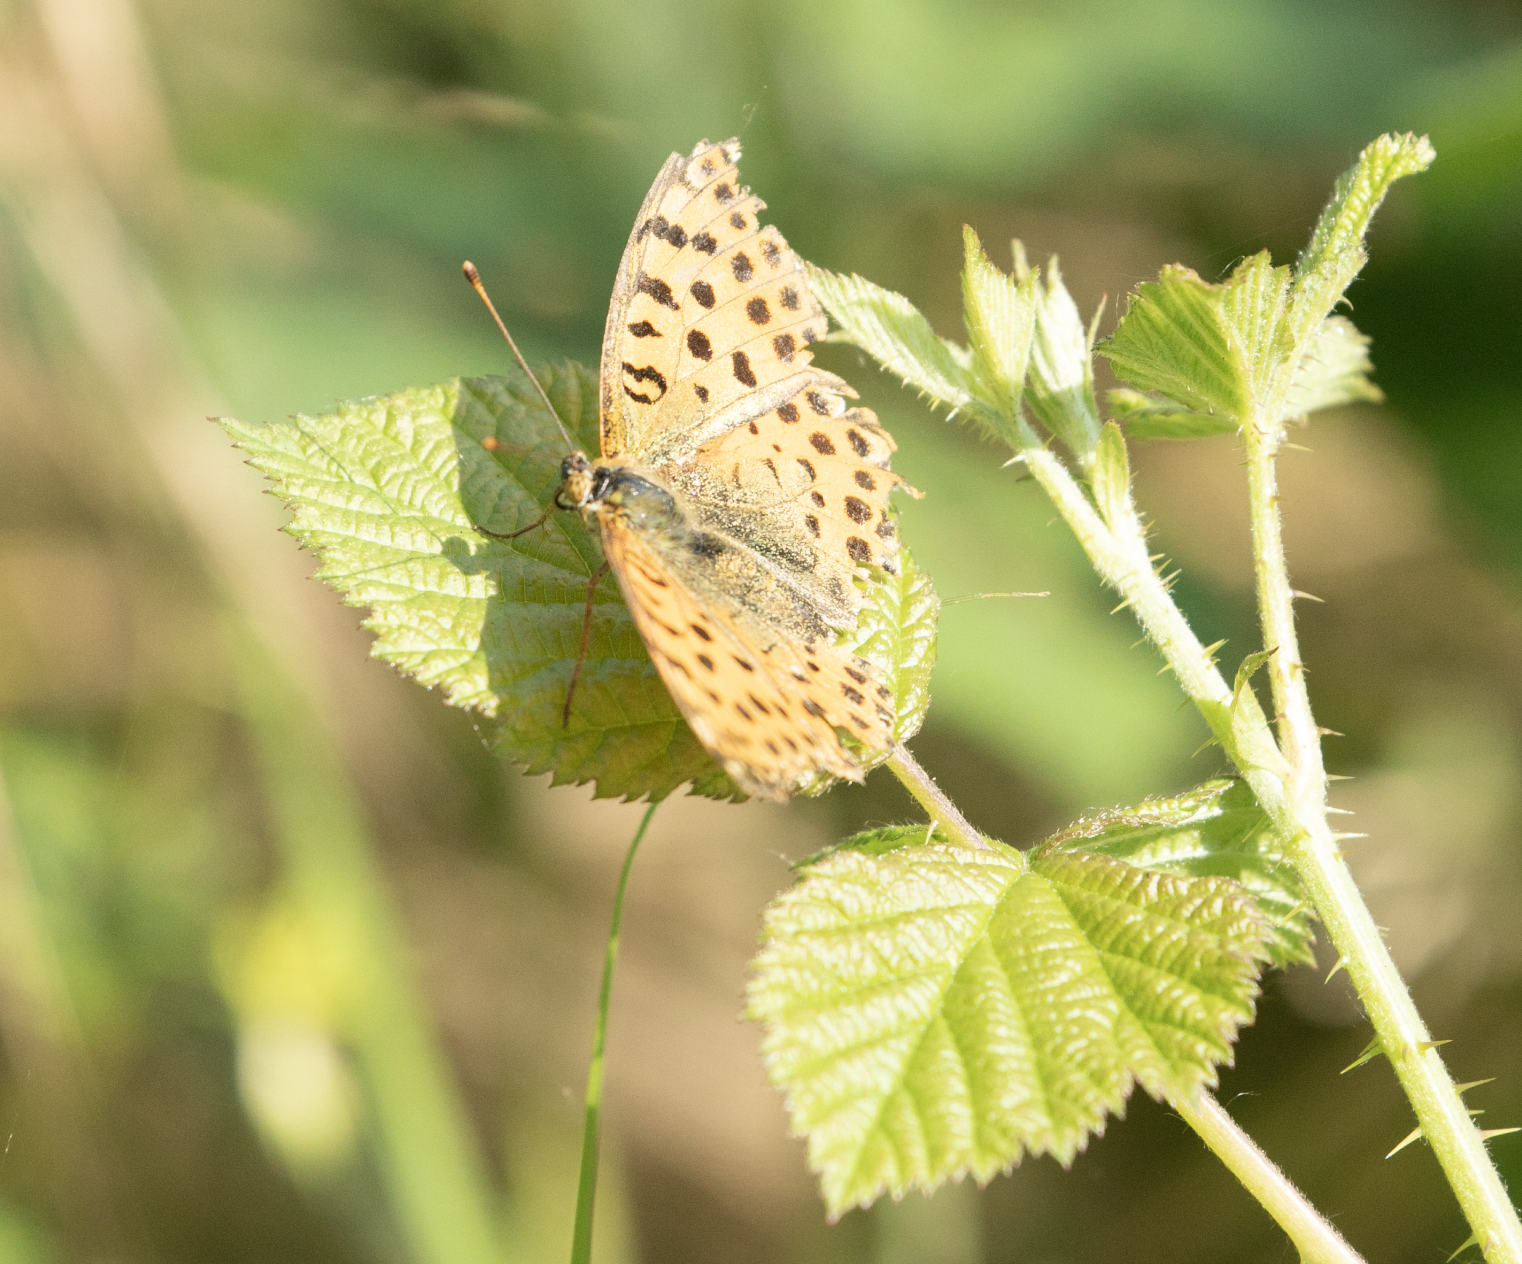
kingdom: Animalia
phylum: Arthropoda
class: Insecta
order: Lepidoptera
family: Nymphalidae
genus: Issoria
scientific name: Issoria lathonia
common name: Queen of spain fritillary
